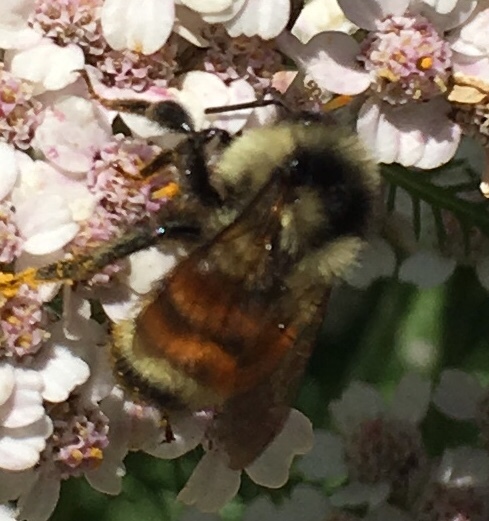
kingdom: Animalia
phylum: Arthropoda
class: Insecta
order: Hymenoptera
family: Apidae
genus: Bombus
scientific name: Bombus ternarius
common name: Tri-colored bumble bee
